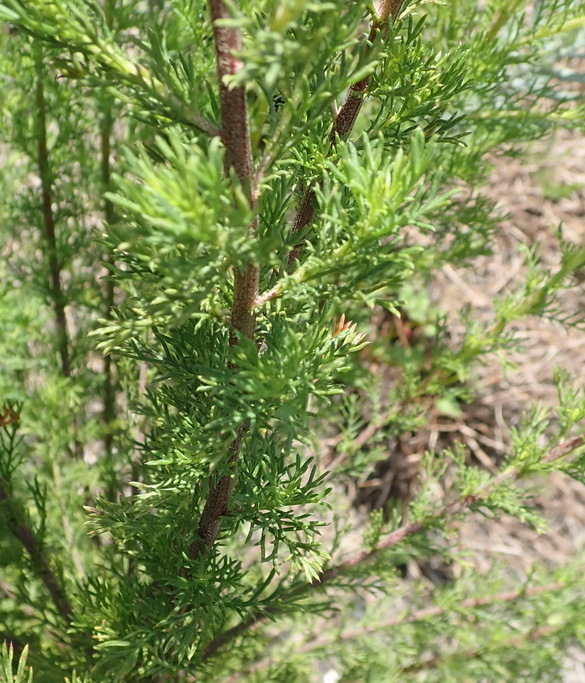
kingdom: Plantae
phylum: Tracheophyta
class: Magnoliopsida
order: Asterales
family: Asteraceae
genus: Ursinia
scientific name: Ursinia scariosa
